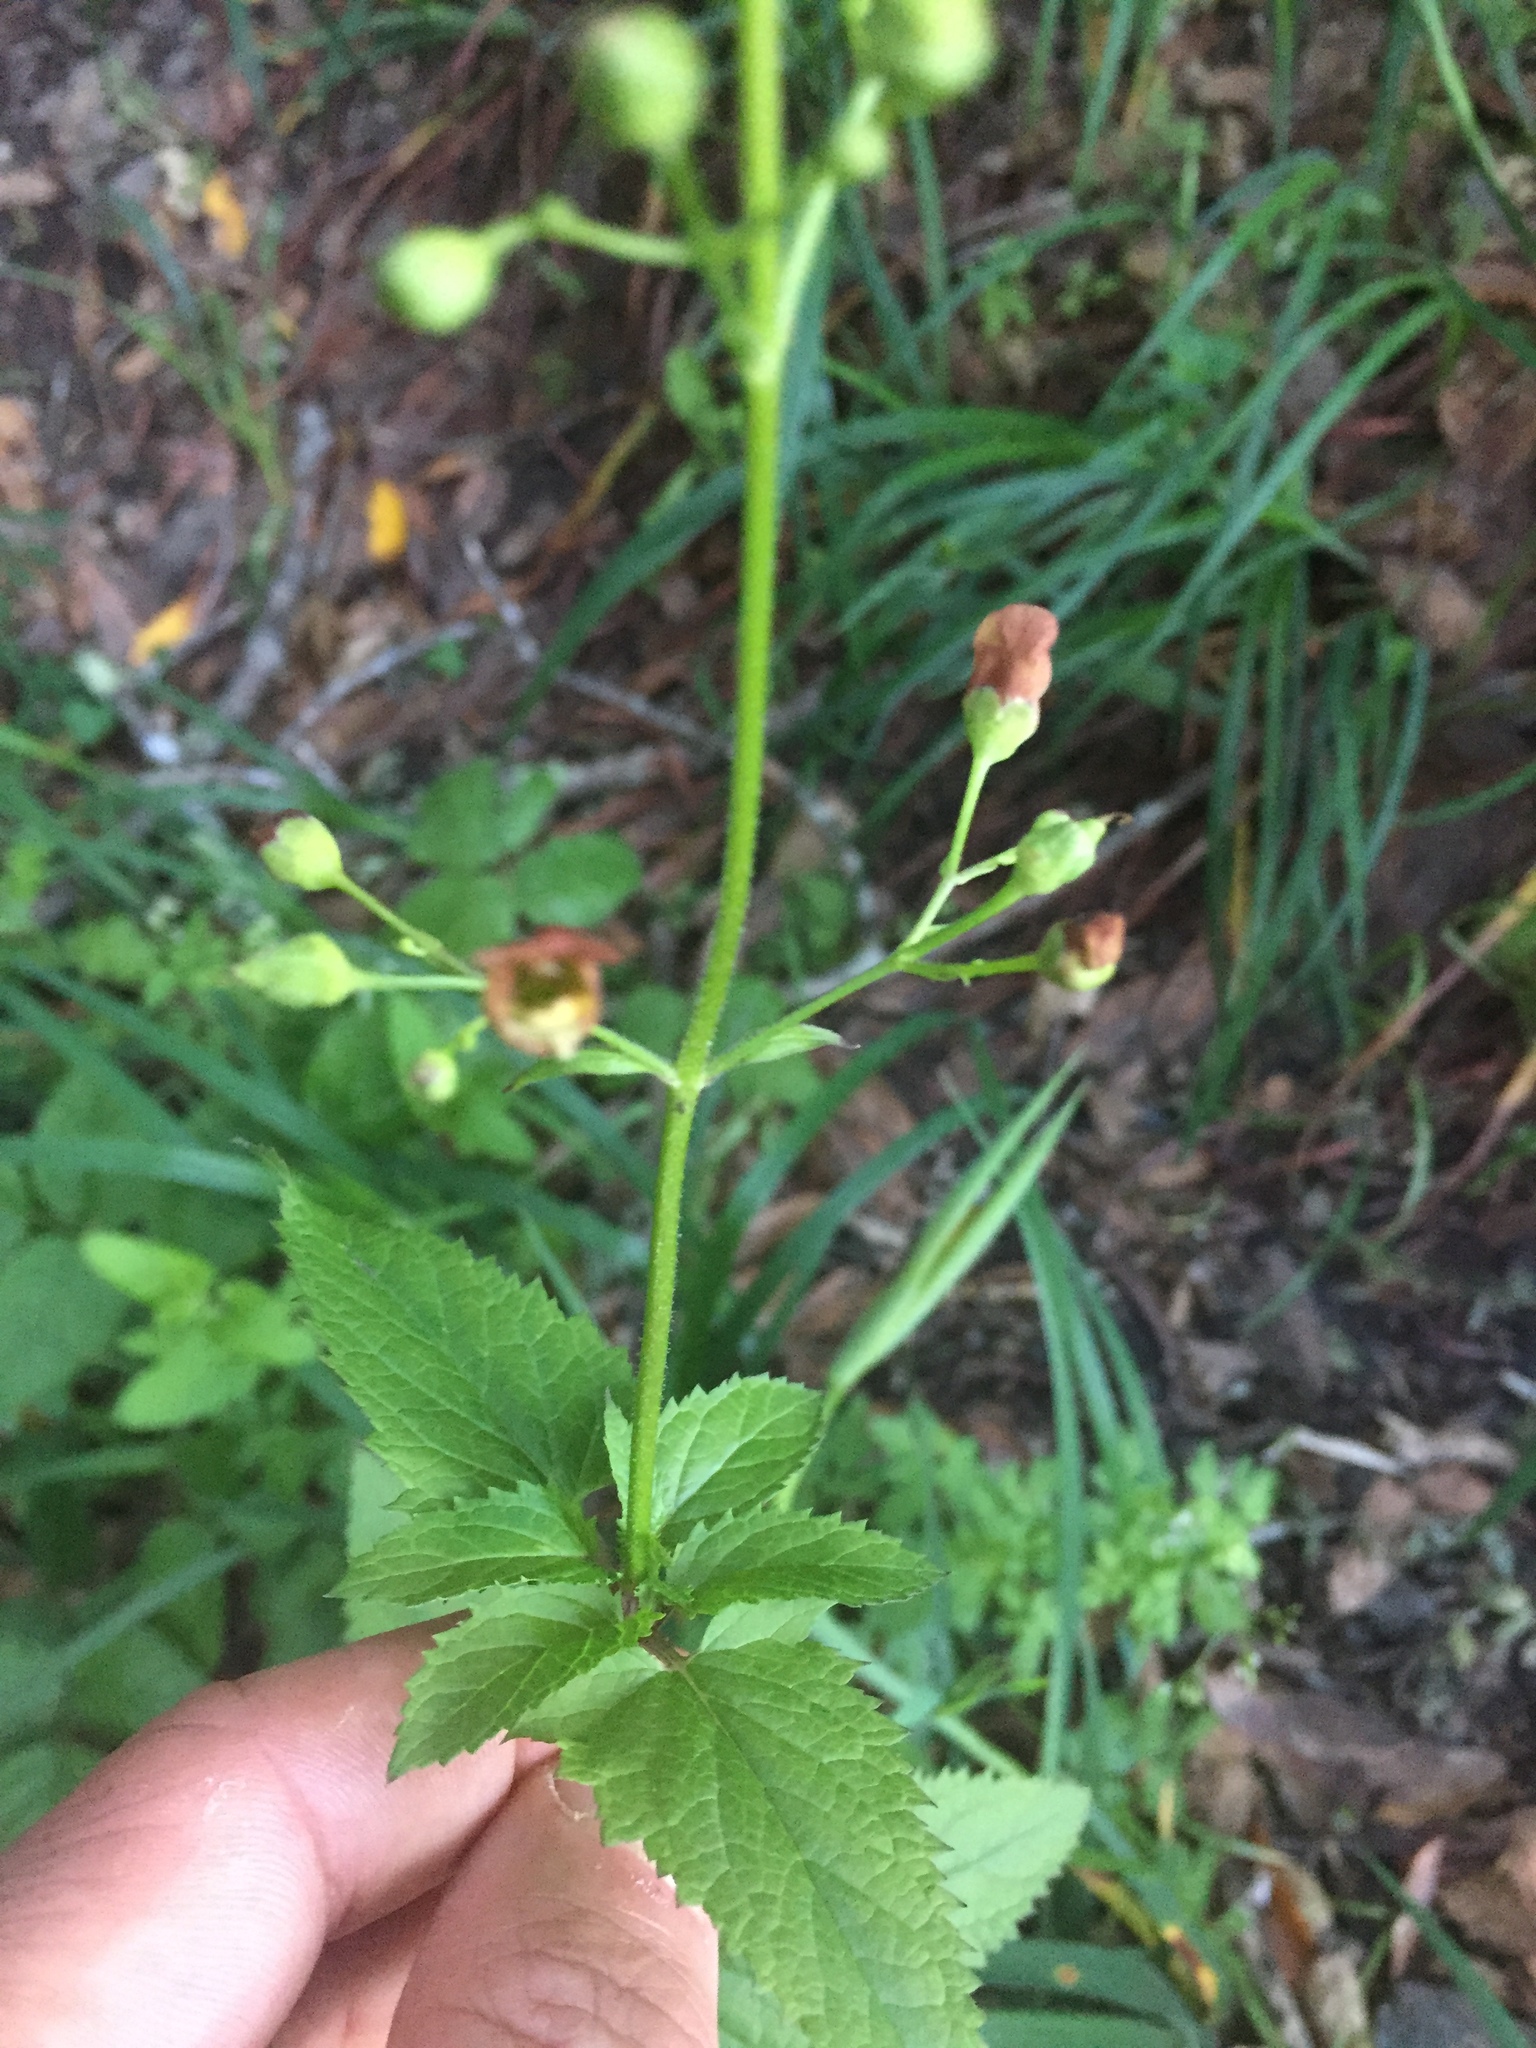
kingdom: Plantae
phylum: Tracheophyta
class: Magnoliopsida
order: Lamiales
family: Scrophulariaceae
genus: Scrophularia
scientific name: Scrophularia californica
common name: California figwort
